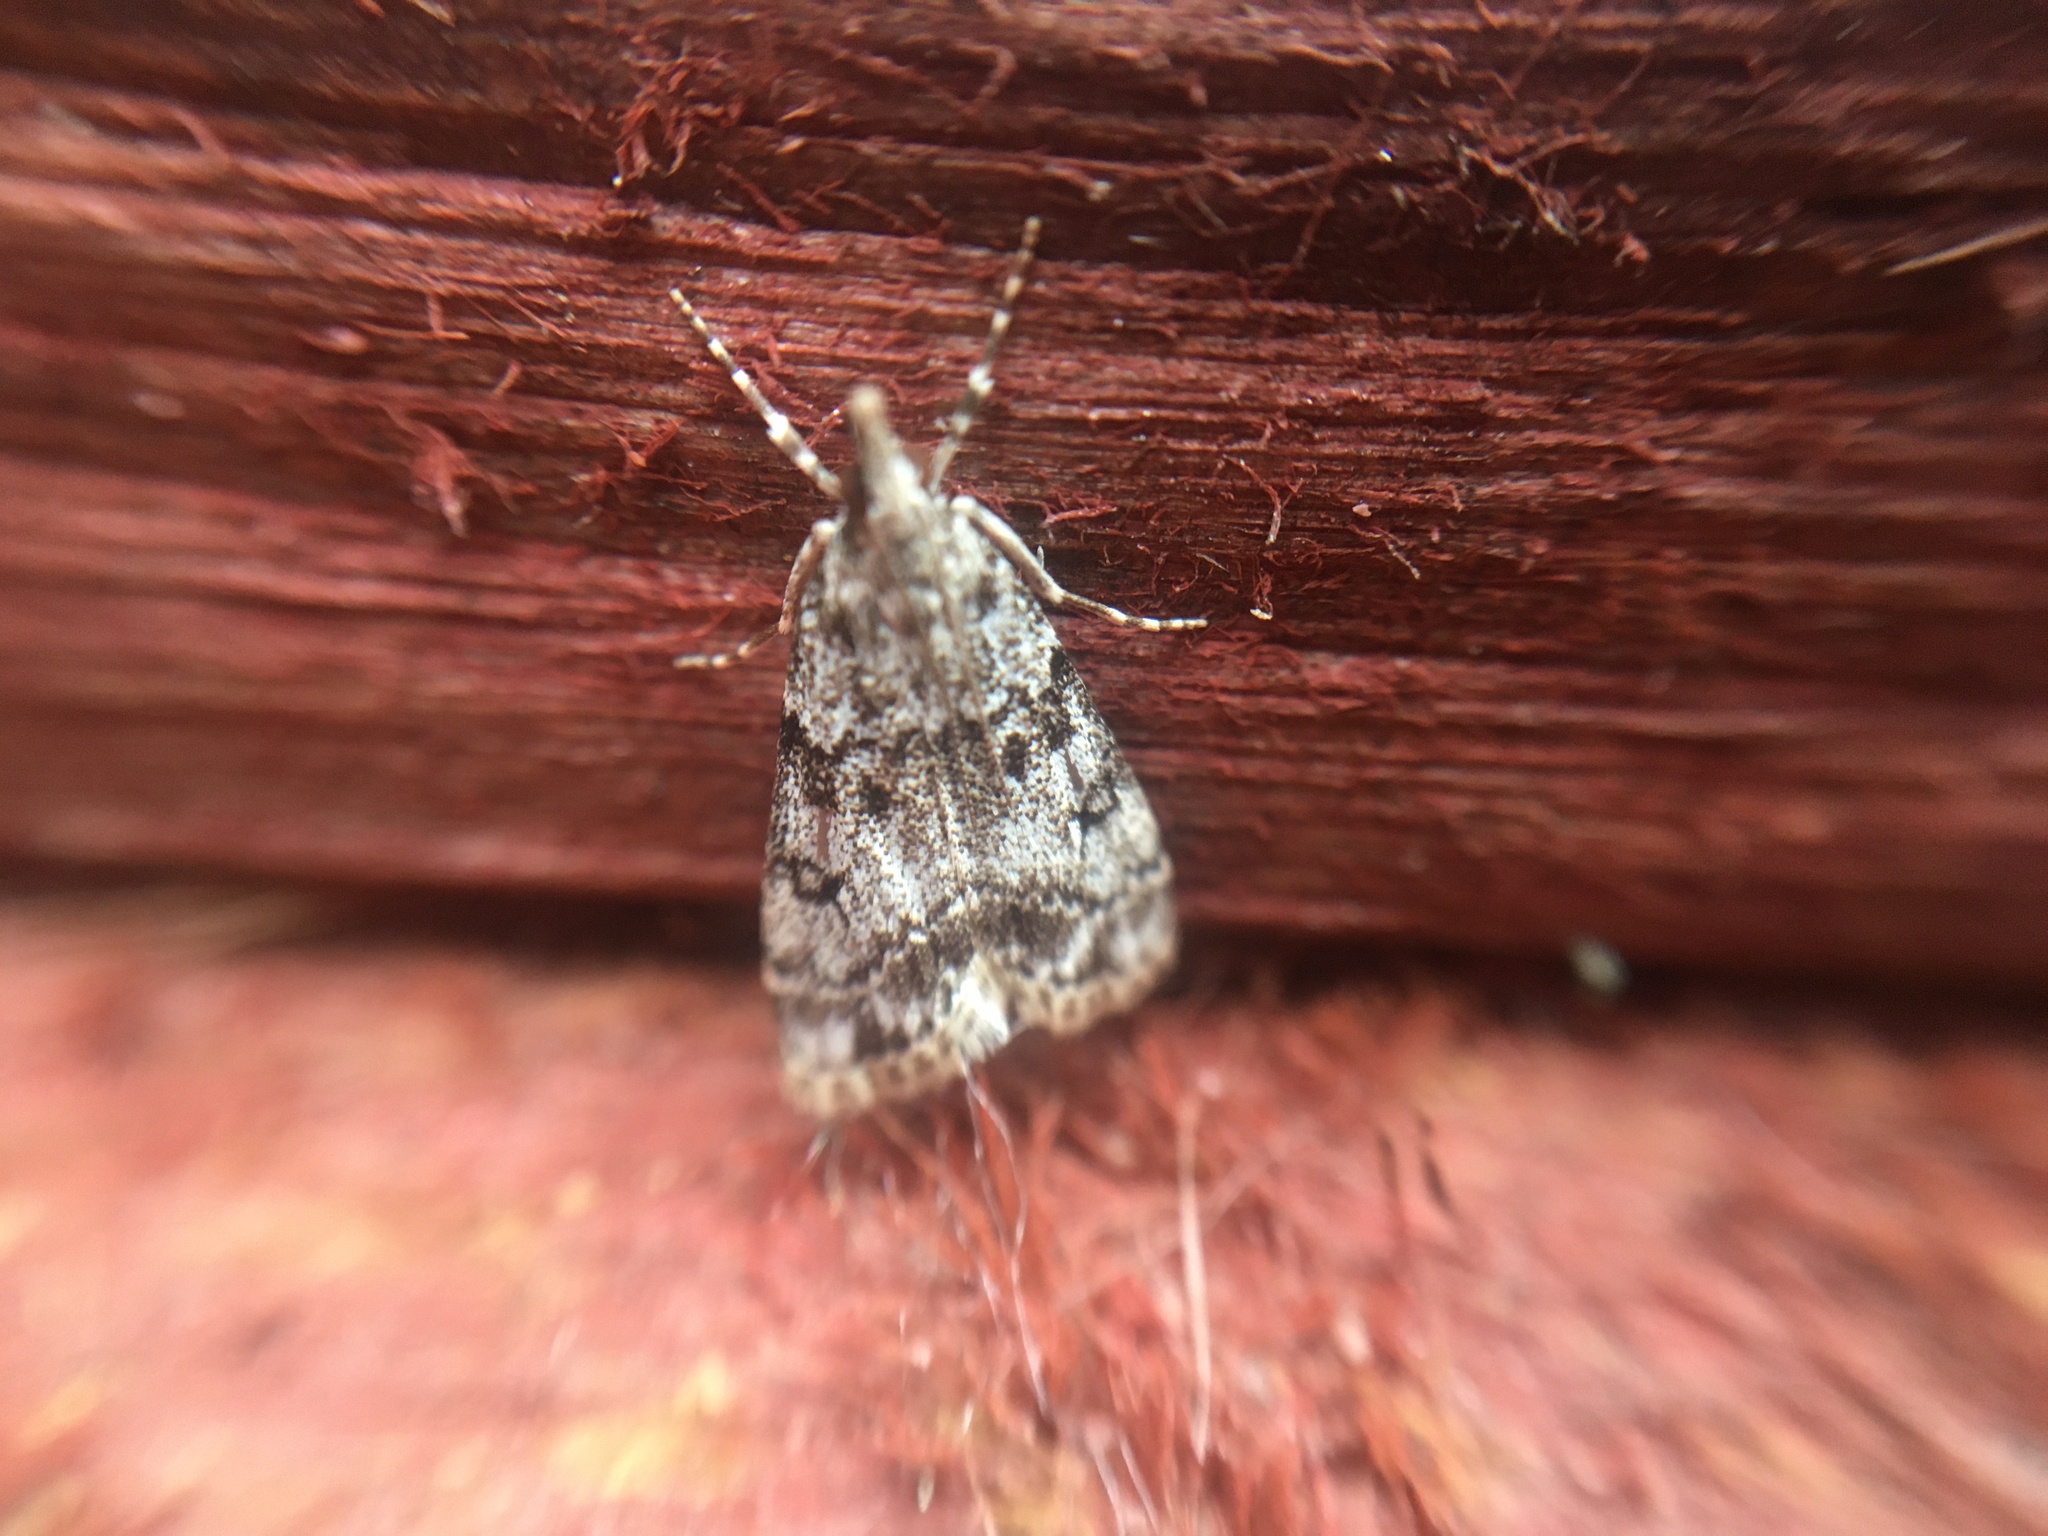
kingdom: Animalia
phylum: Arthropoda
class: Insecta
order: Lepidoptera
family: Crambidae
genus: Eudonia
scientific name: Eudonia lacustrata
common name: Little grey
